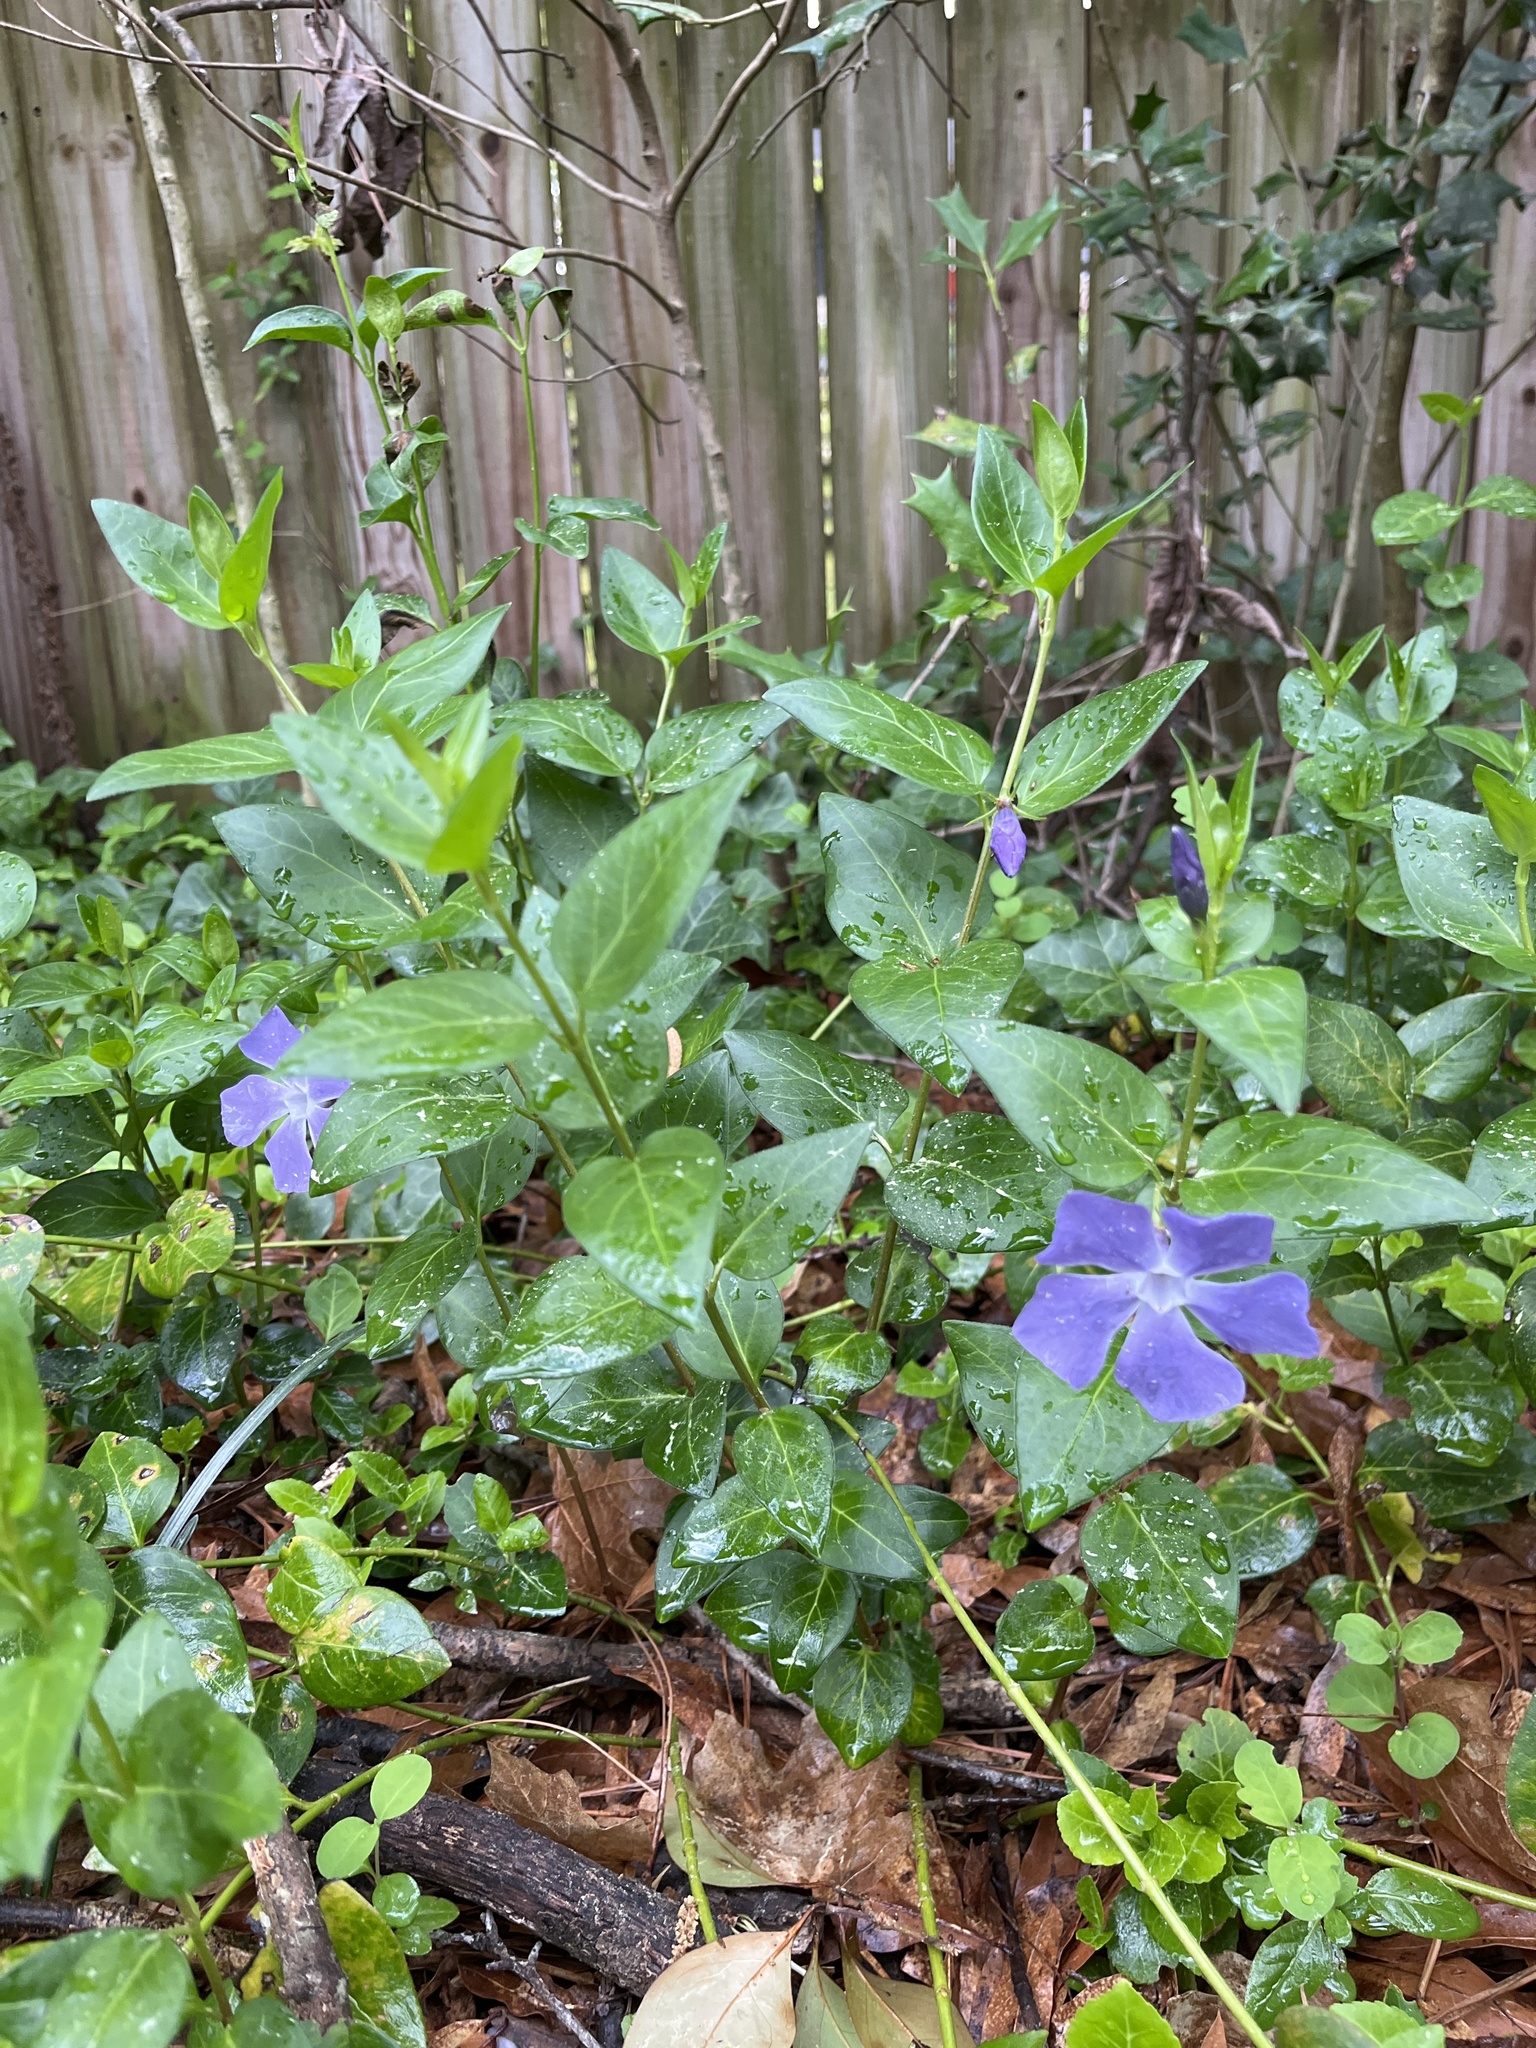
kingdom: Plantae
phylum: Tracheophyta
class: Magnoliopsida
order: Gentianales
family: Apocynaceae
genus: Vinca
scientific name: Vinca major
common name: Greater periwinkle
